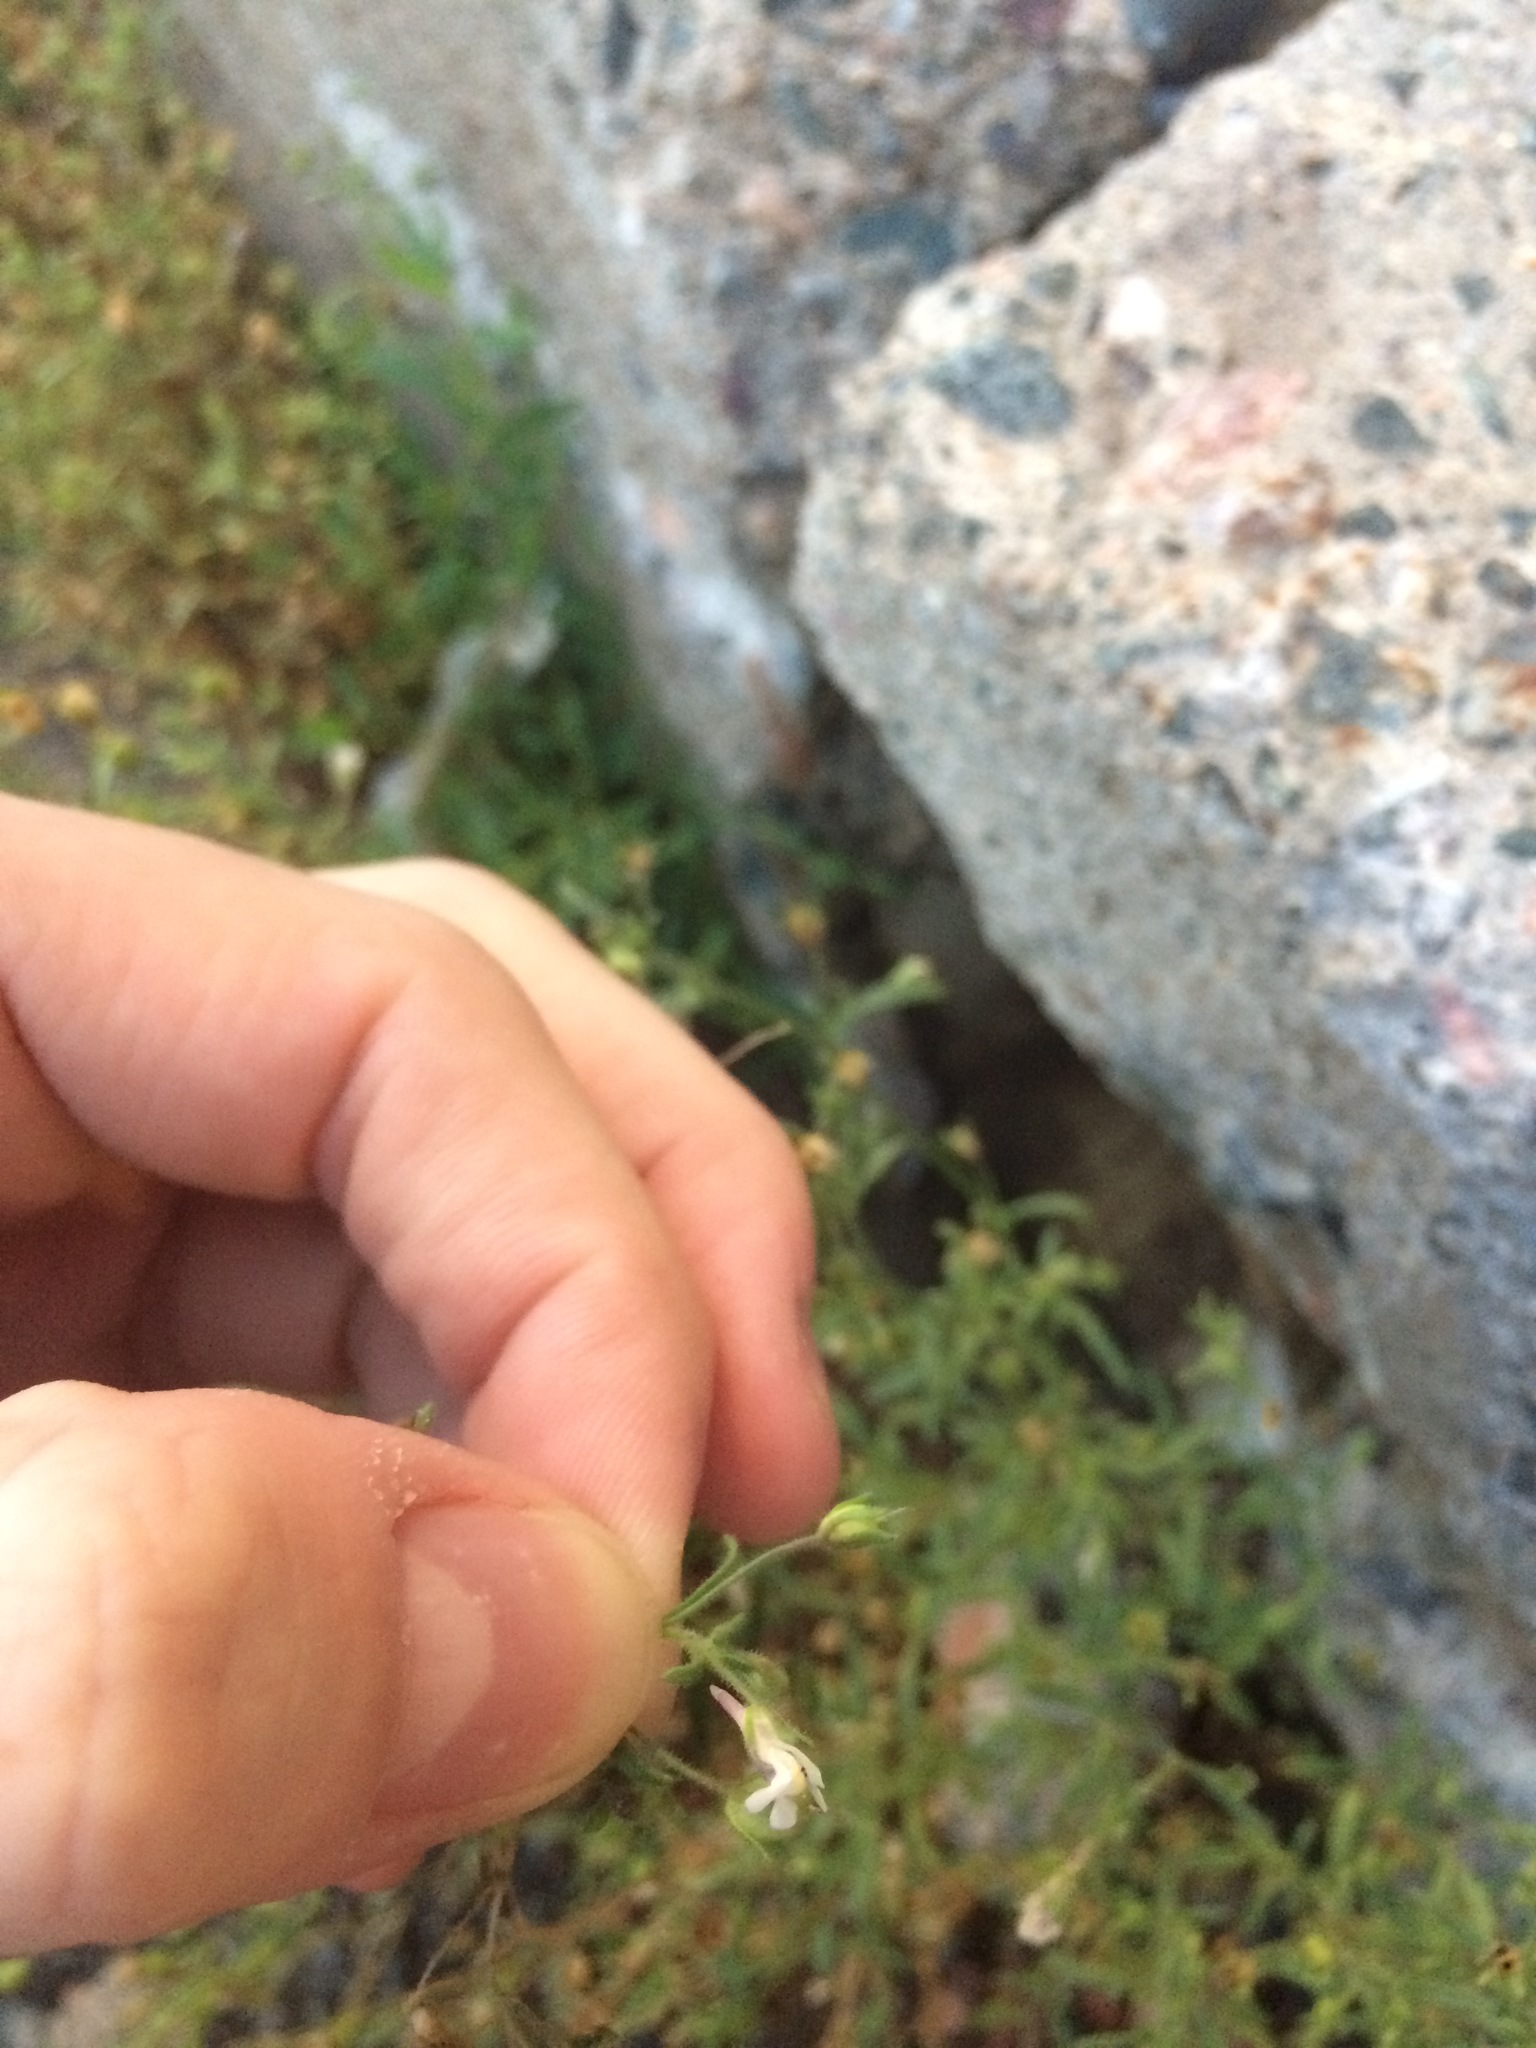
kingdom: Plantae
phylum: Tracheophyta
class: Magnoliopsida
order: Lamiales
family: Plantaginaceae
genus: Chaenorhinum
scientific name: Chaenorhinum minus
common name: Dwarf snapdragon
